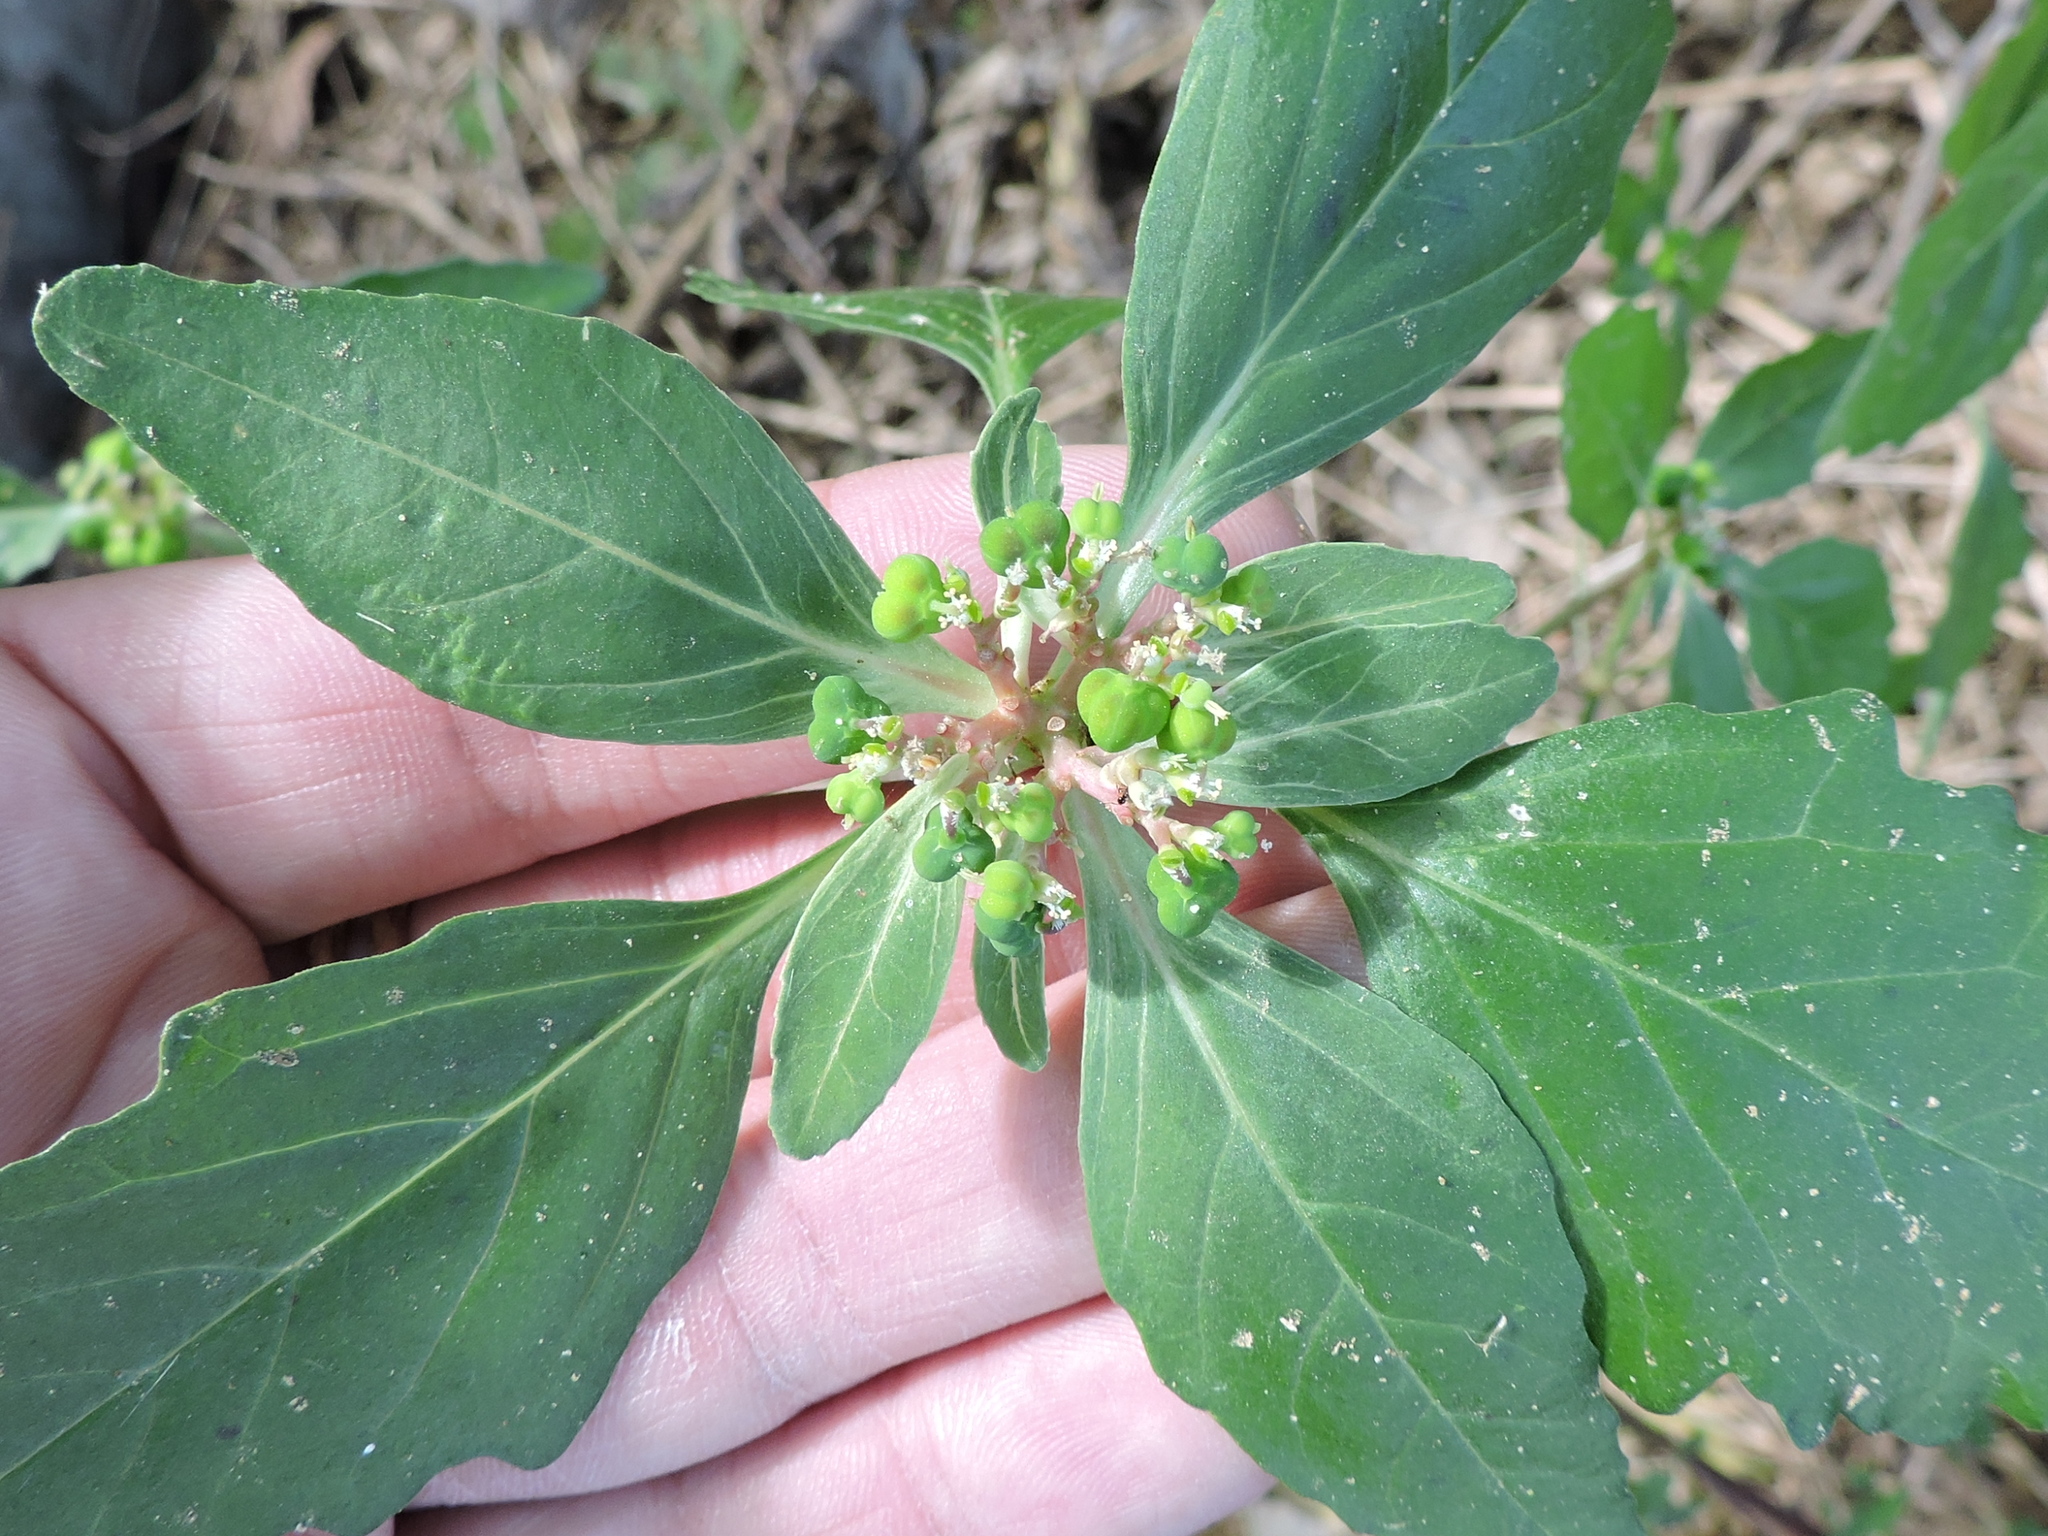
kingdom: Plantae
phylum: Tracheophyta
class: Magnoliopsida
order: Malpighiales
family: Euphorbiaceae
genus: Euphorbia
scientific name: Euphorbia dentata
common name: Dentate spurge
